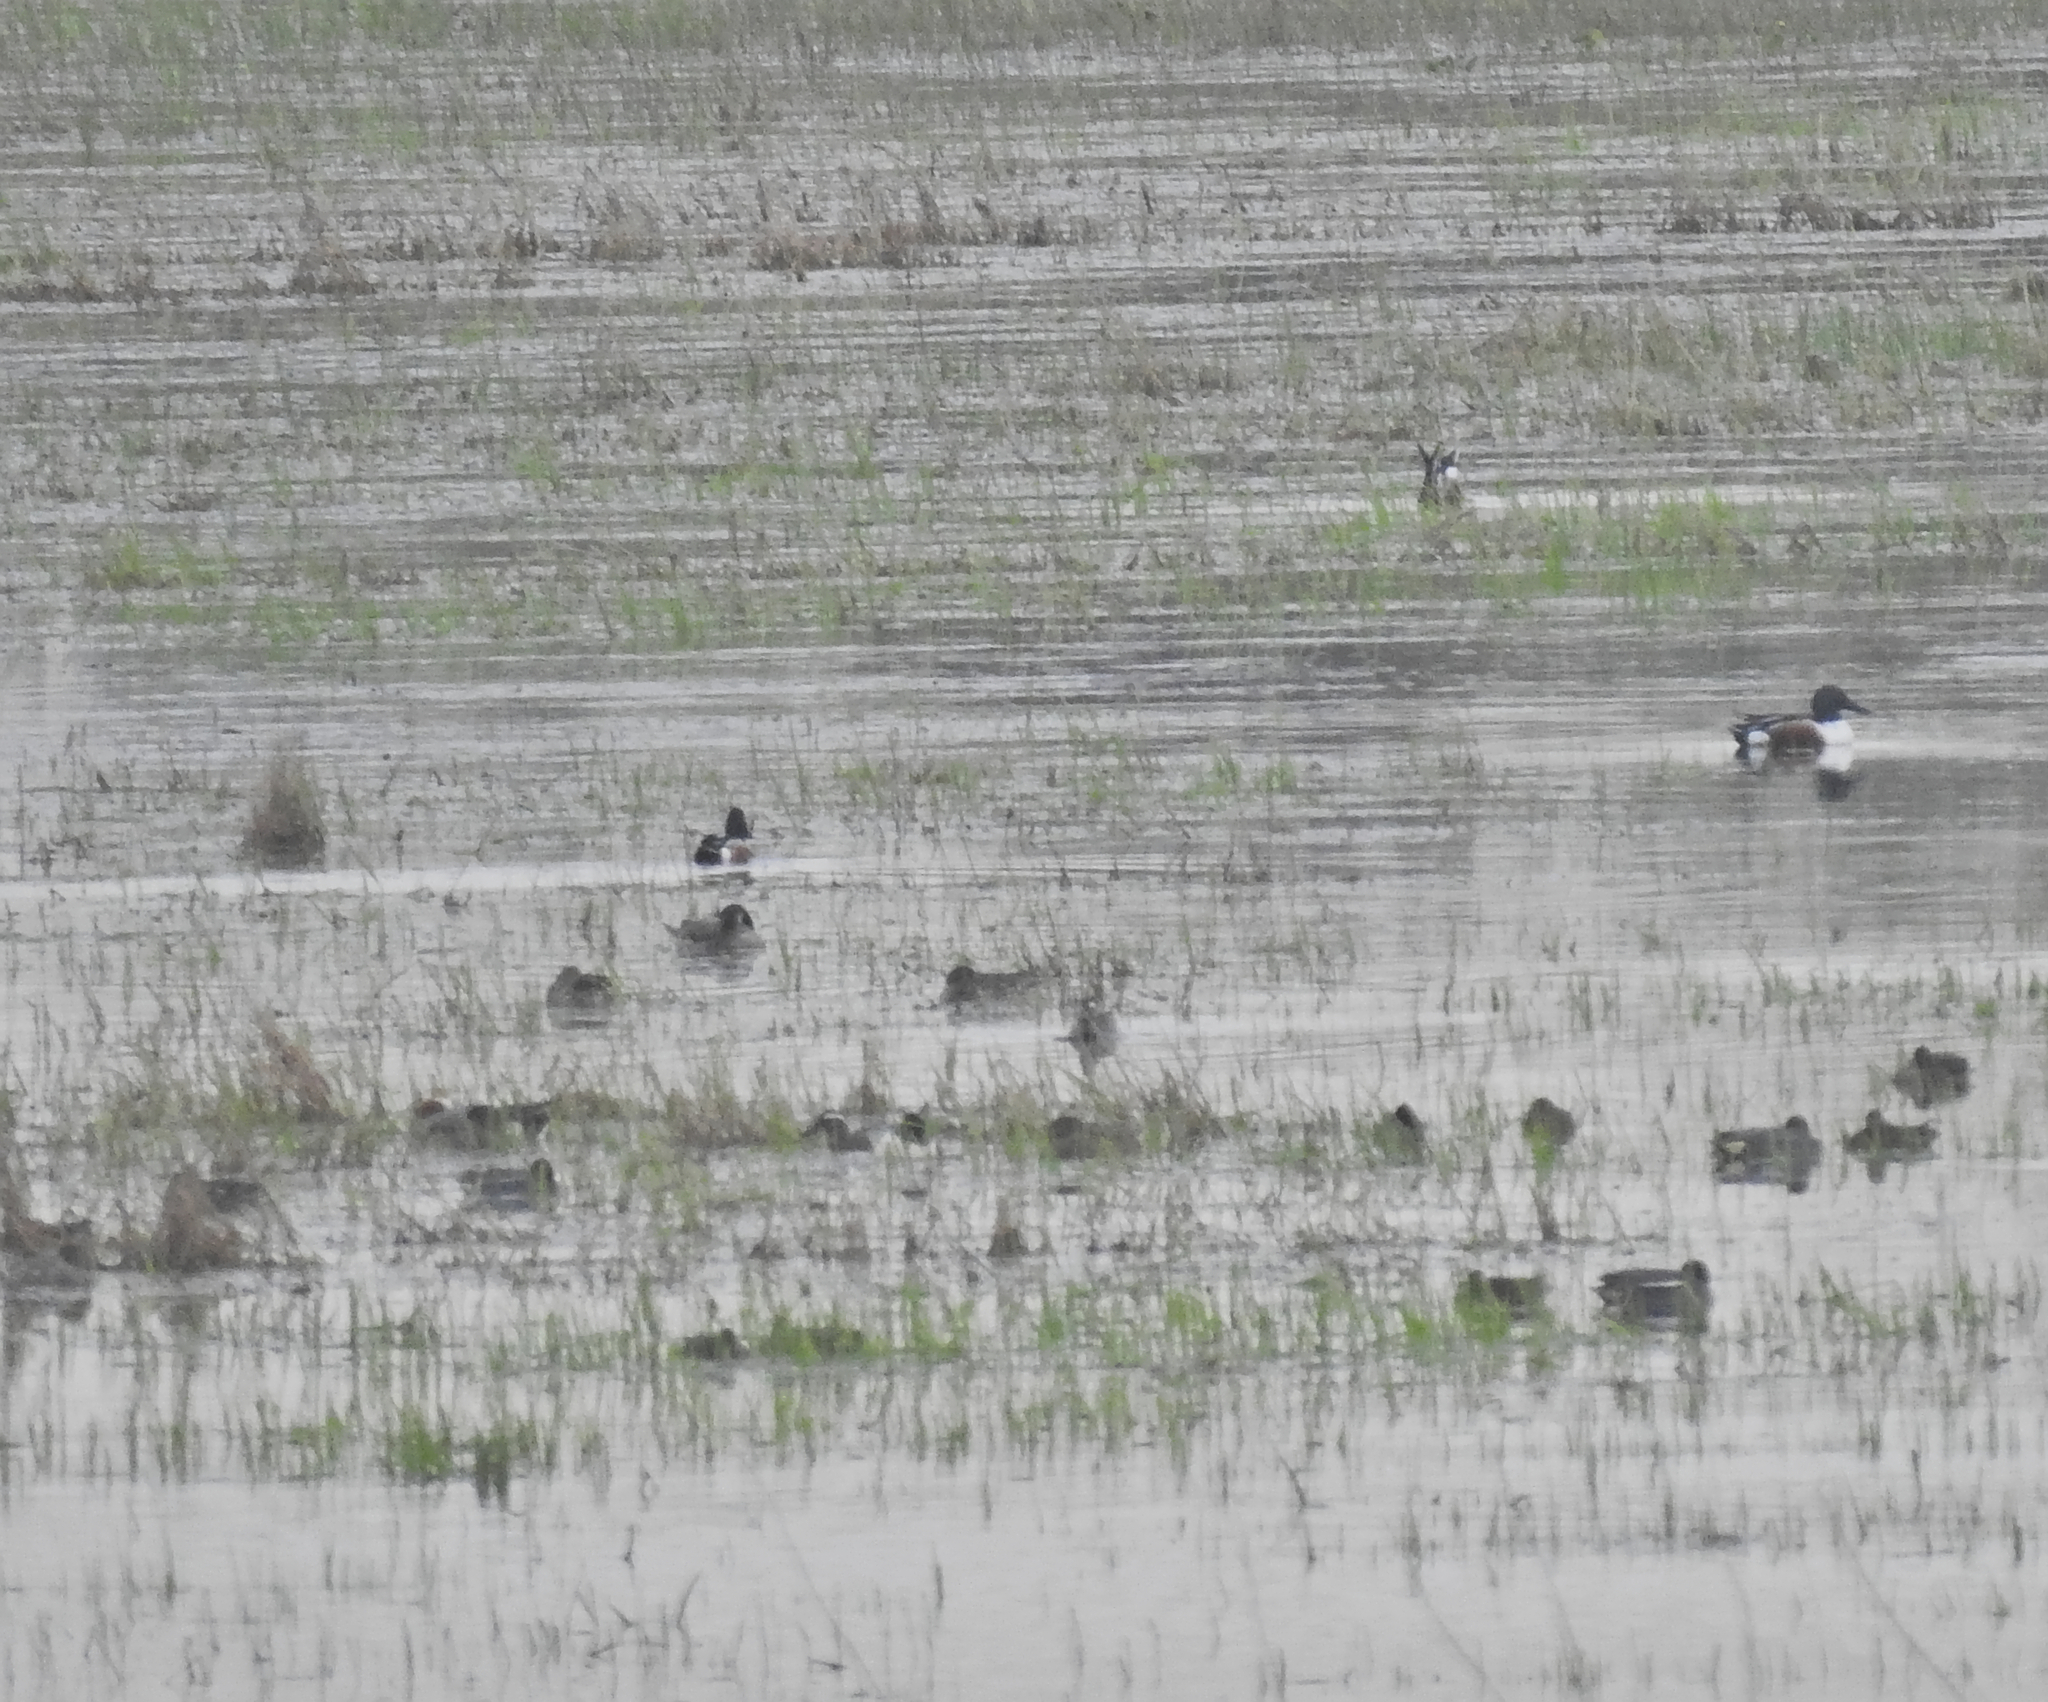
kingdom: Animalia
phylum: Chordata
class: Aves
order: Anseriformes
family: Anatidae
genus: Spatula
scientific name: Spatula querquedula
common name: Garganey
